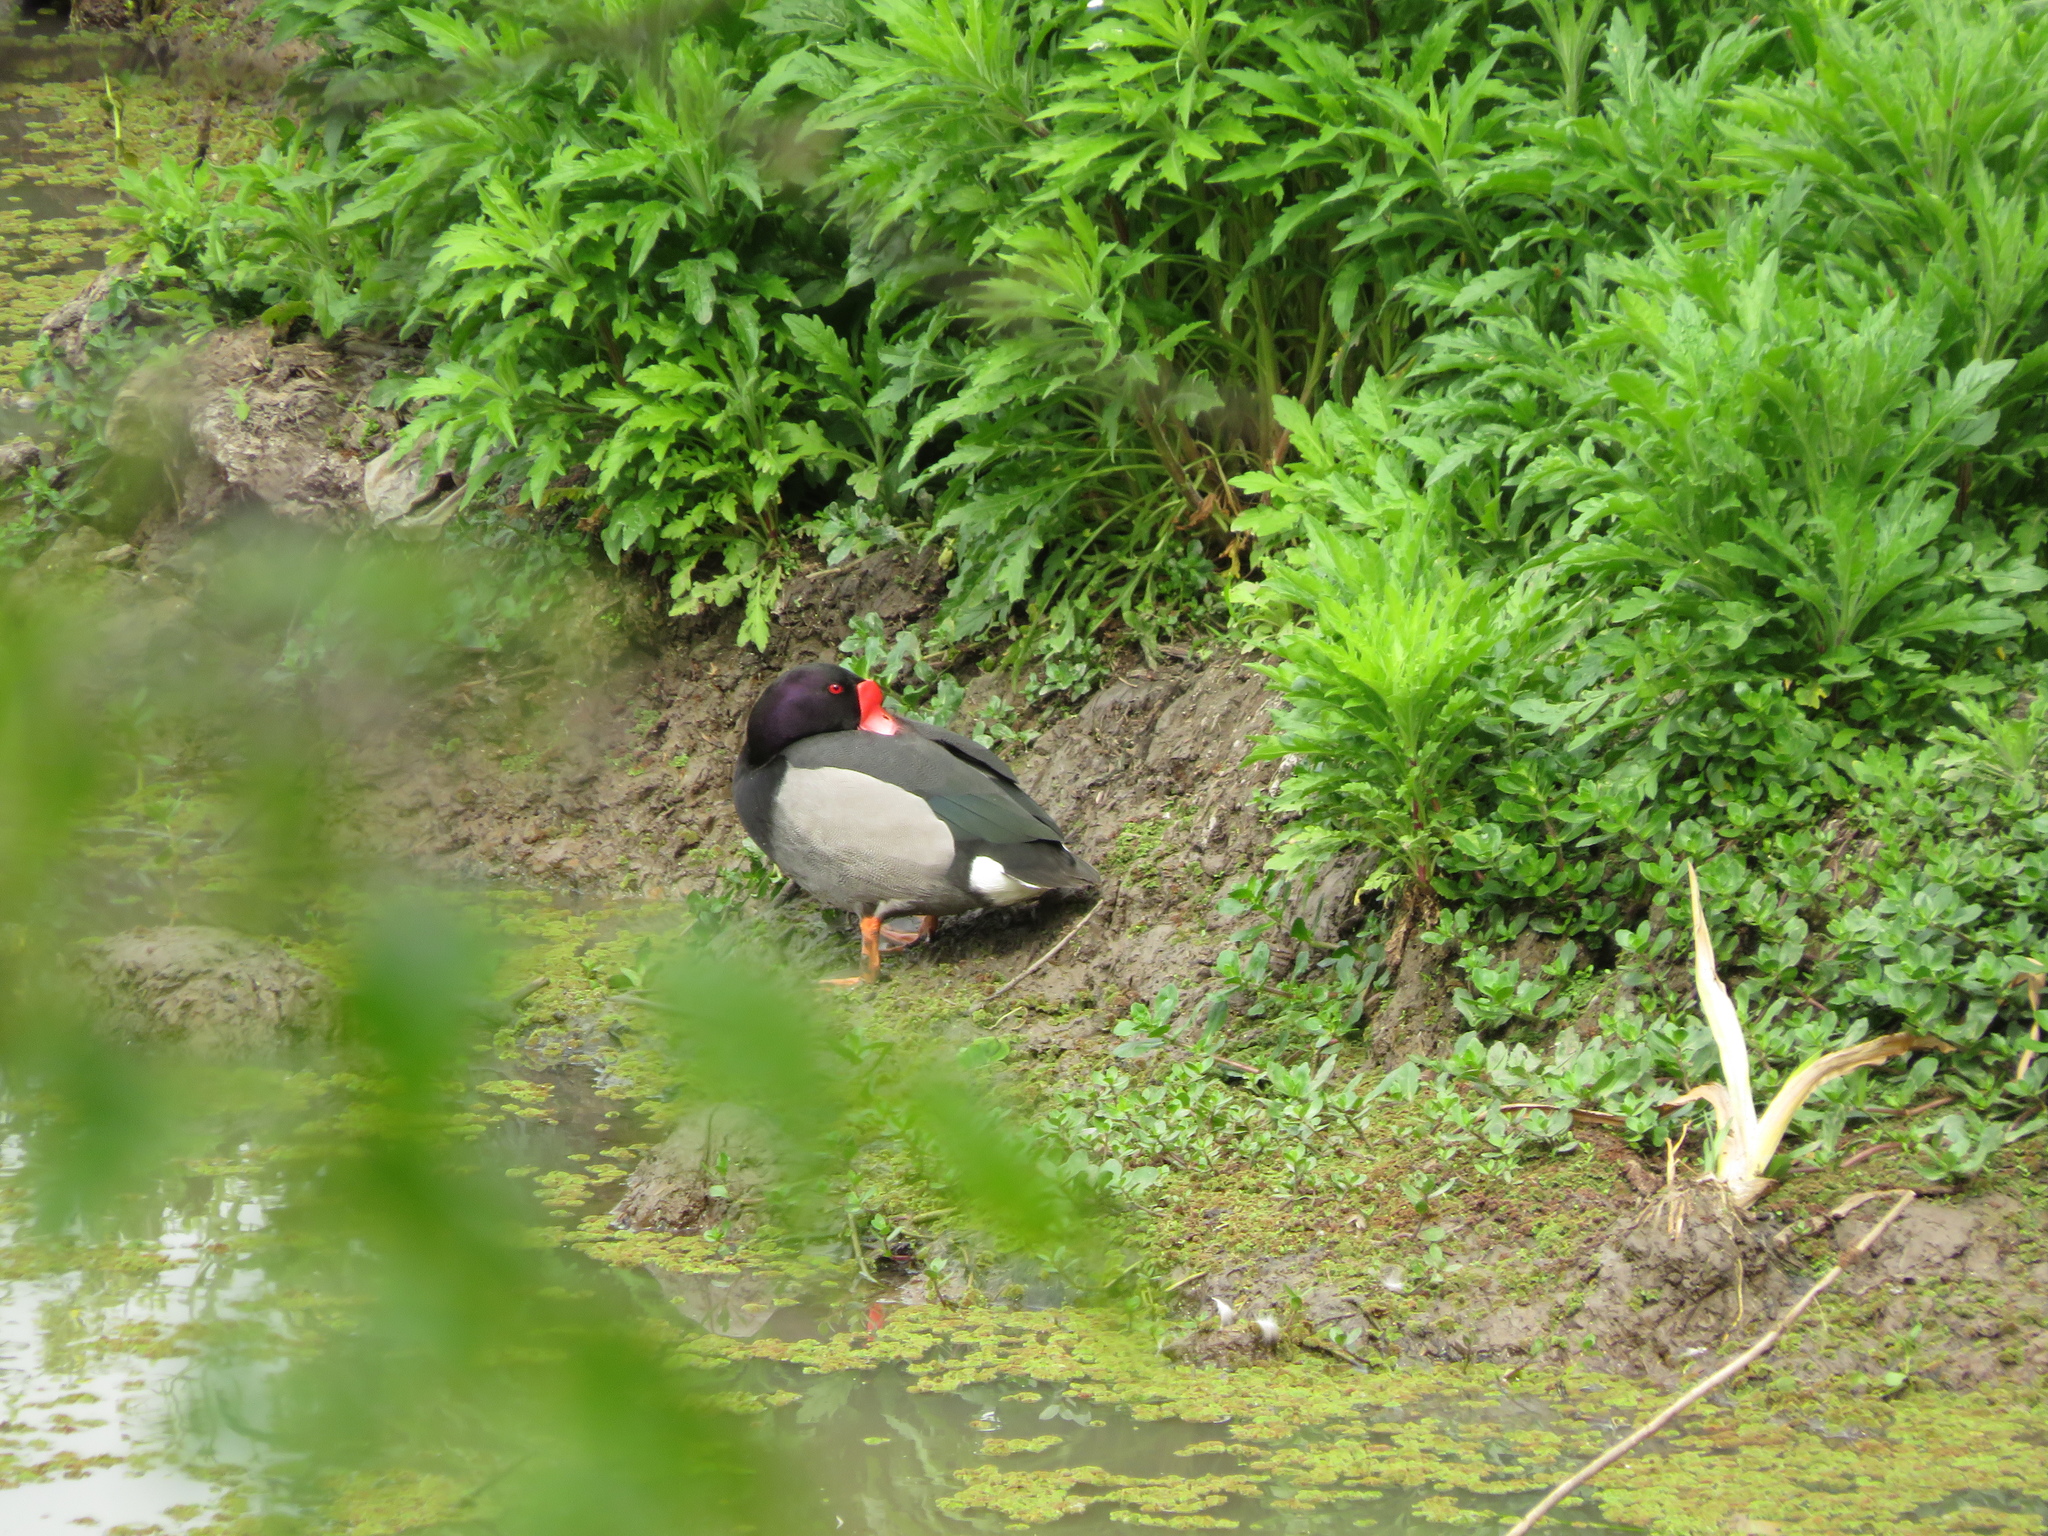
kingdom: Animalia
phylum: Chordata
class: Aves
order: Anseriformes
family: Anatidae
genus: Netta
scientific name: Netta peposaca
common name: Rosy-billed pochard
